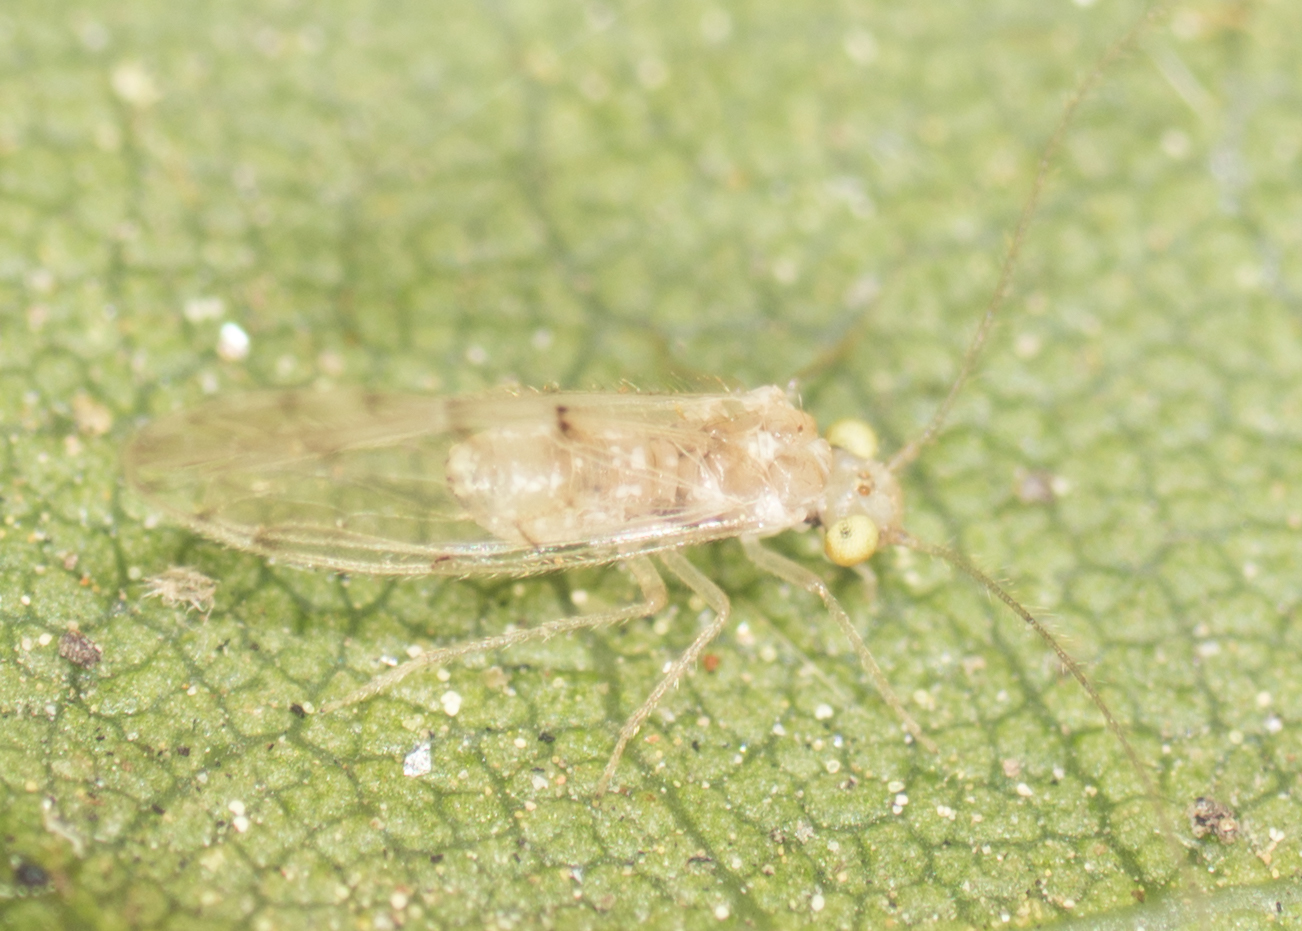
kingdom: Animalia
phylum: Arthropoda
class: Insecta
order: Psocodea
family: Trichopsocidae
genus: Trichopsocus
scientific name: Trichopsocus clarus
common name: Lash-faced psocid
